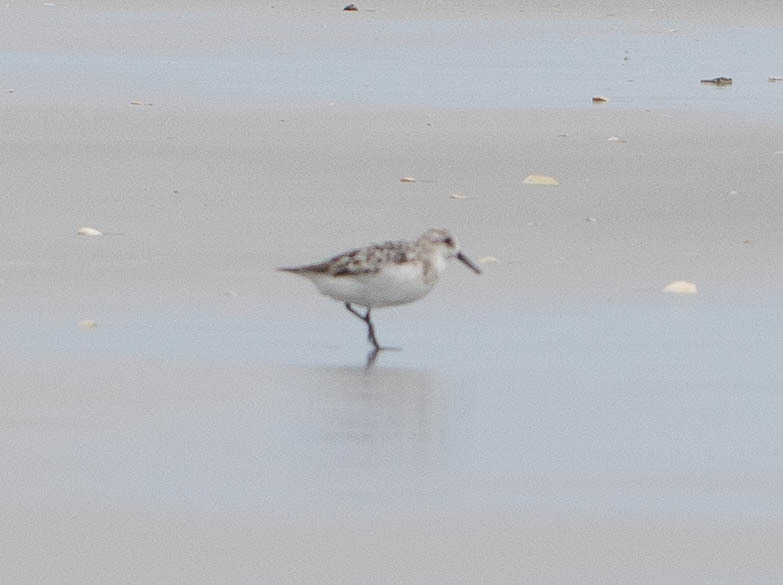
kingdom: Animalia
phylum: Chordata
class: Aves
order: Charadriiformes
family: Scolopacidae
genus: Calidris
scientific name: Calidris alba
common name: Sanderling
